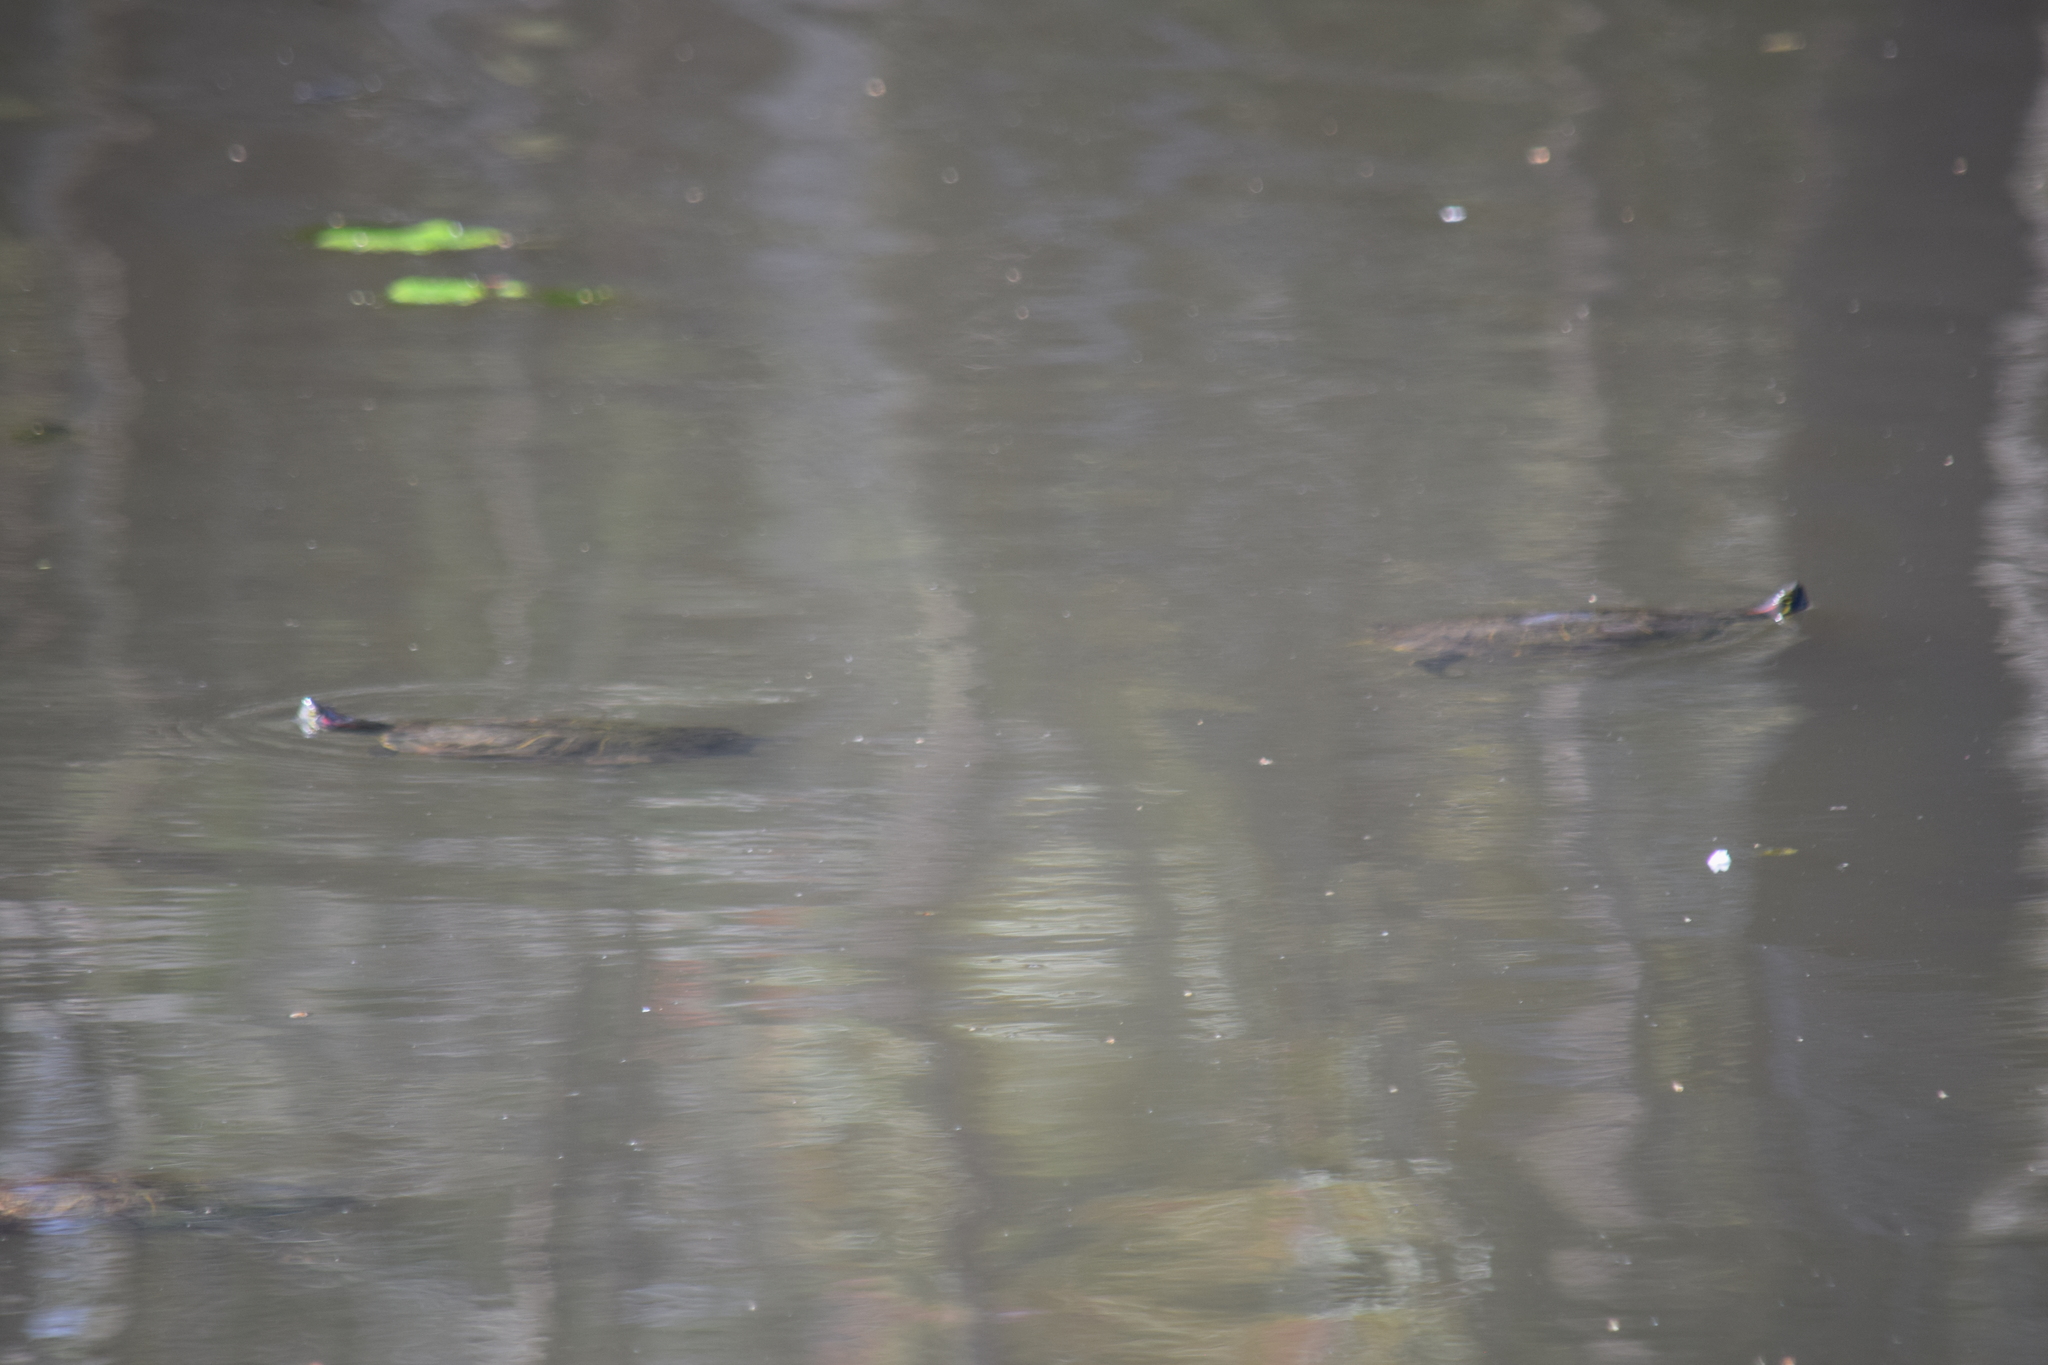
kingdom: Animalia
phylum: Chordata
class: Testudines
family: Emydidae
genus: Trachemys
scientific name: Trachemys scripta
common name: Slider
